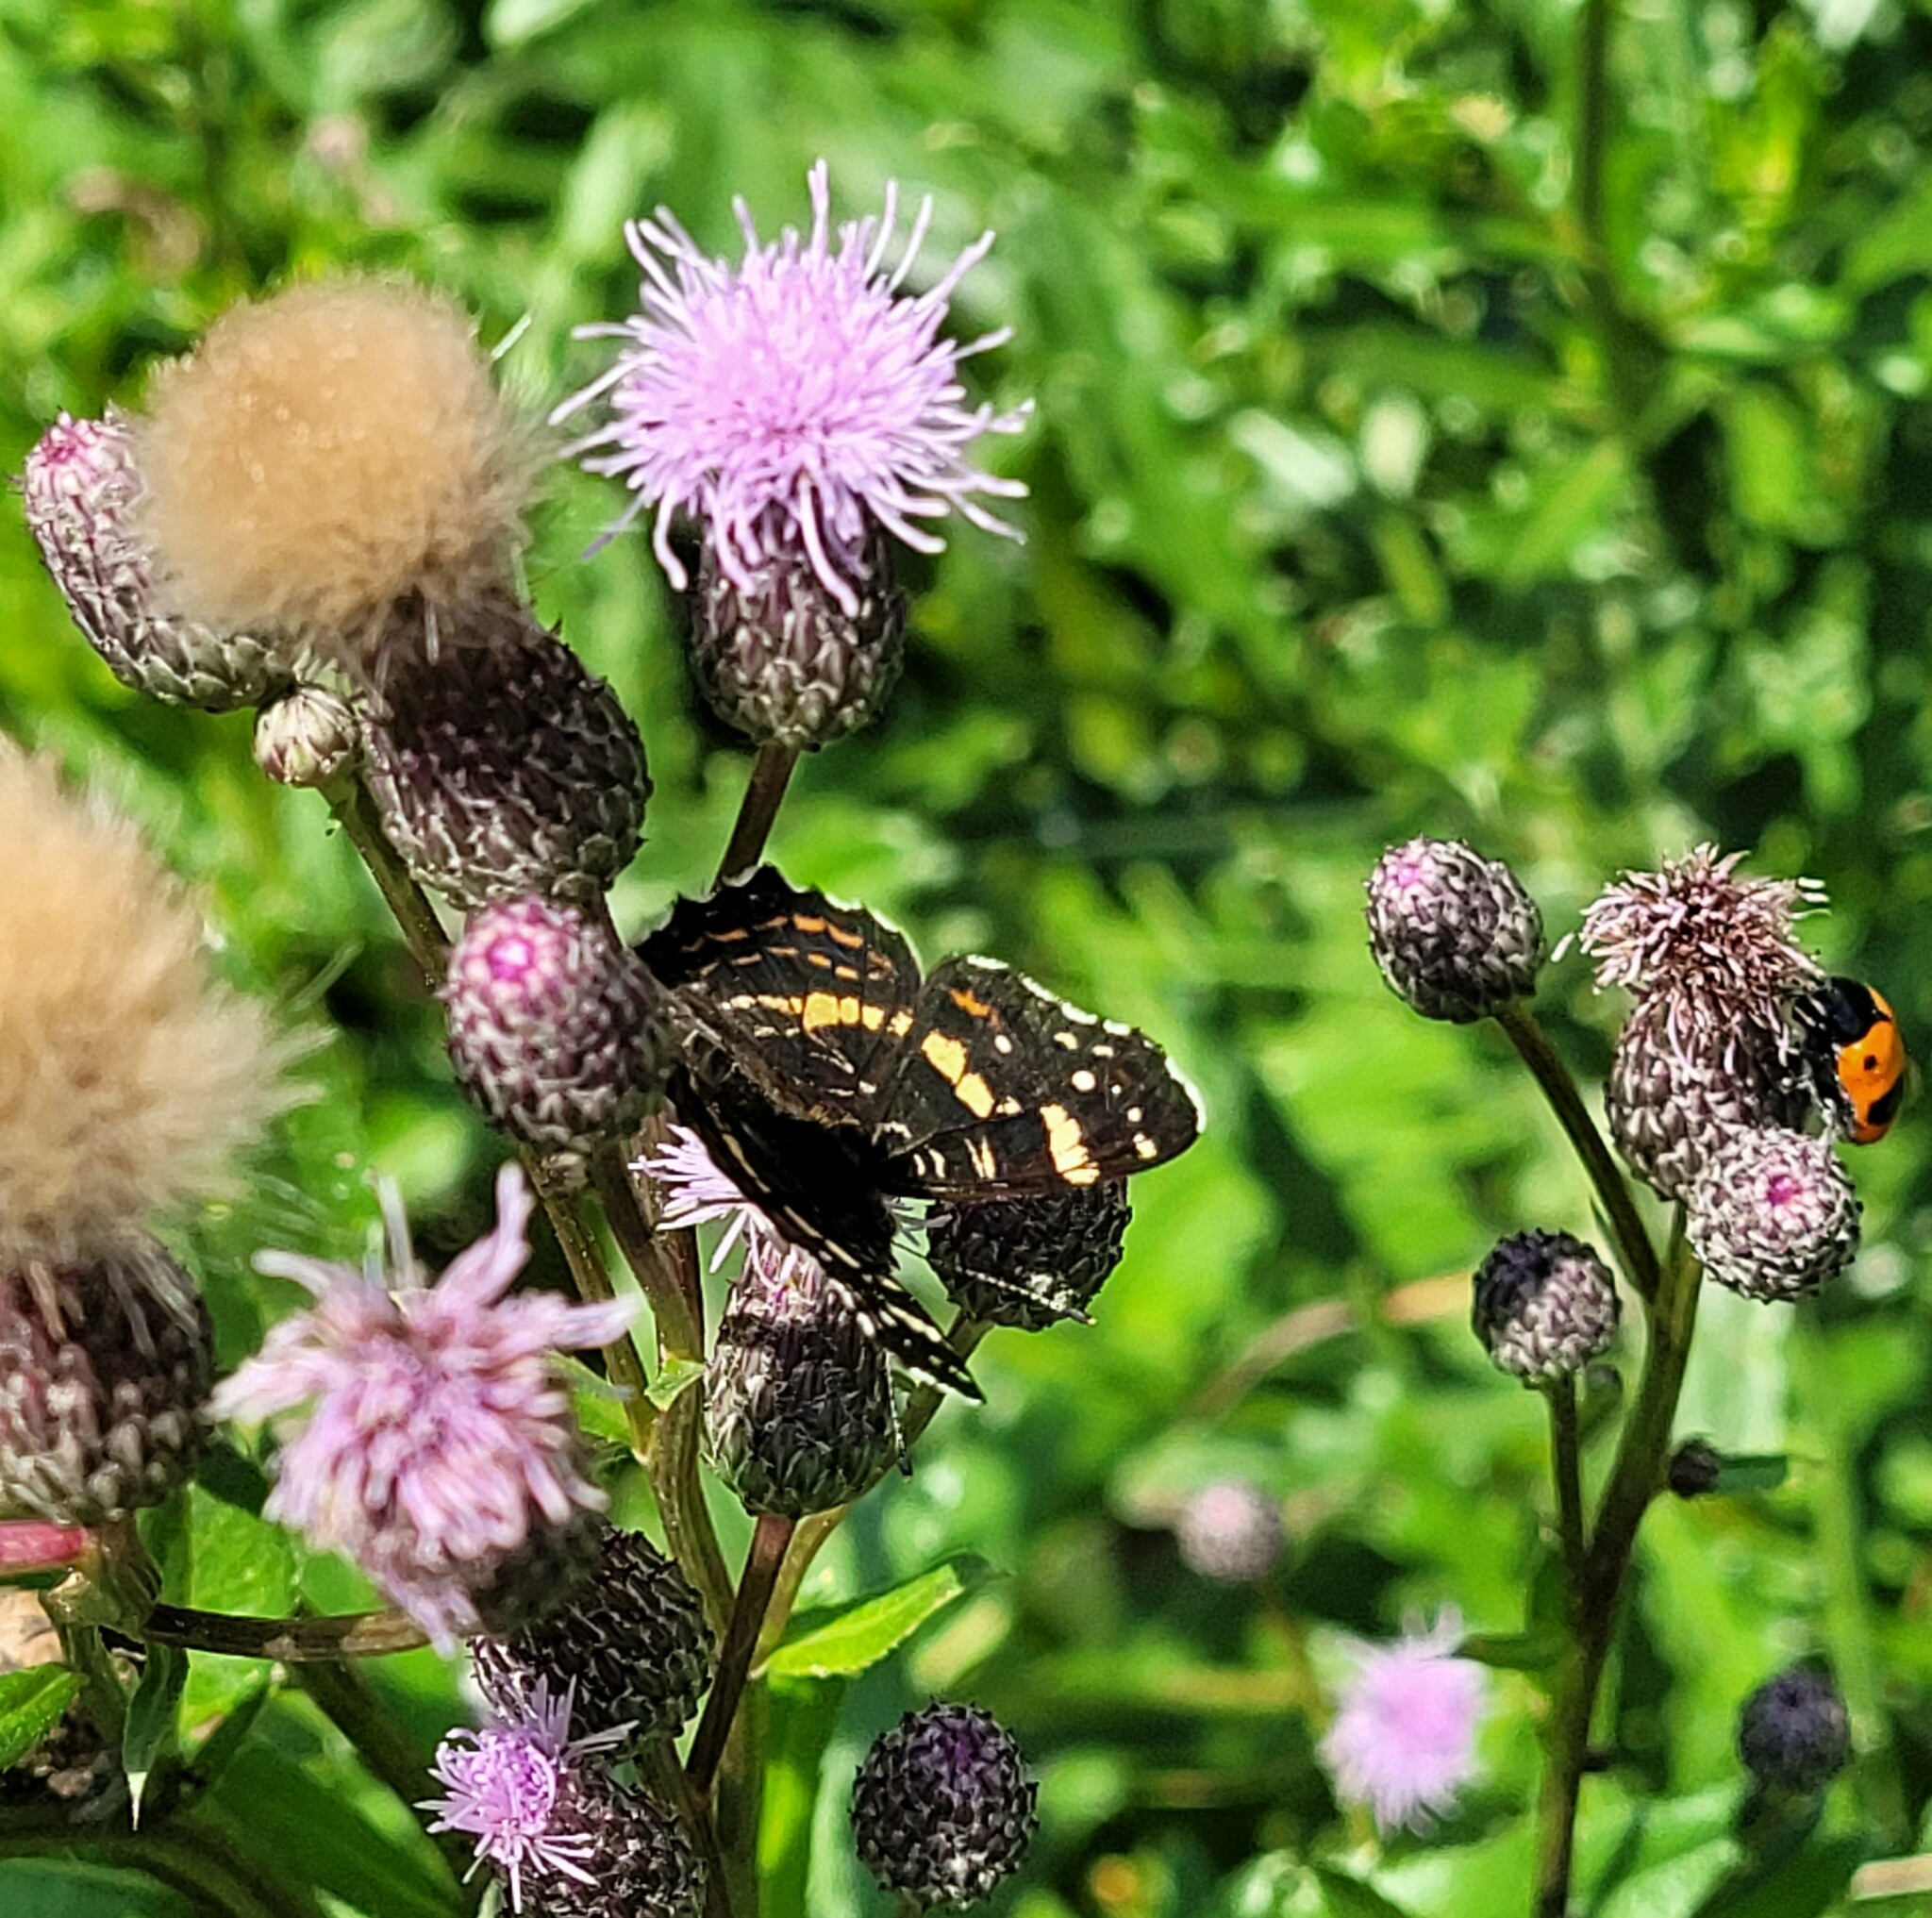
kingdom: Animalia
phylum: Arthropoda
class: Insecta
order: Lepidoptera
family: Nymphalidae
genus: Araschnia
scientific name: Araschnia levana
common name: Map butterfly
